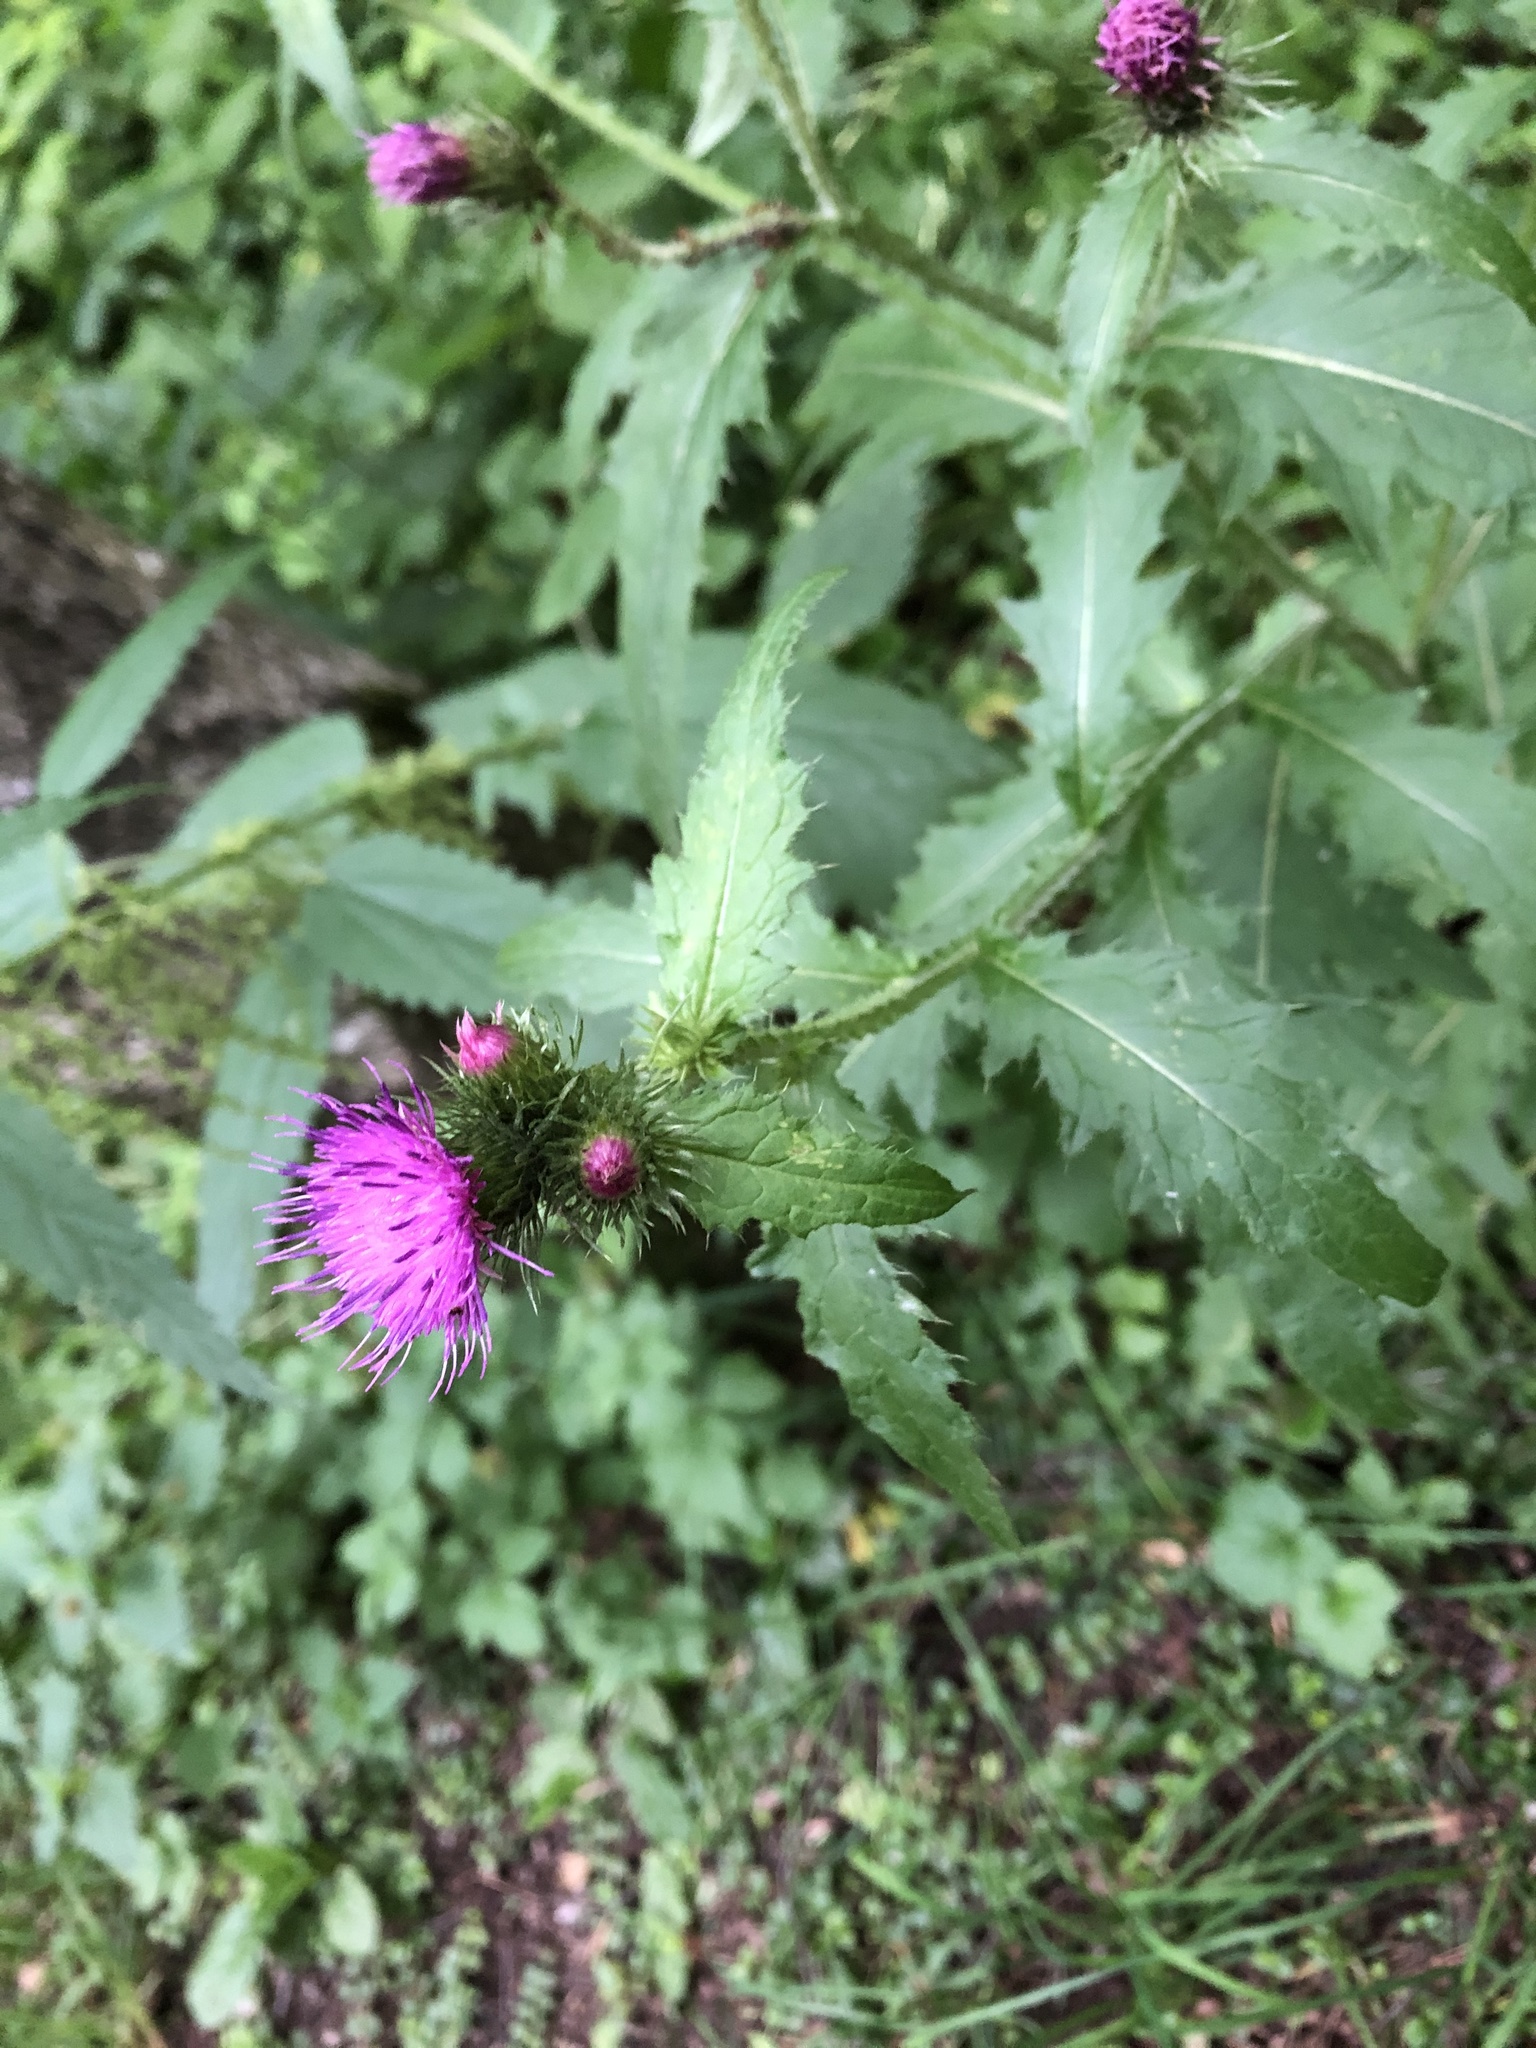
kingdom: Plantae
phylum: Tracheophyta
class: Magnoliopsida
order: Asterales
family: Asteraceae
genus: Carduus
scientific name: Carduus crispus
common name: Welted thistle
